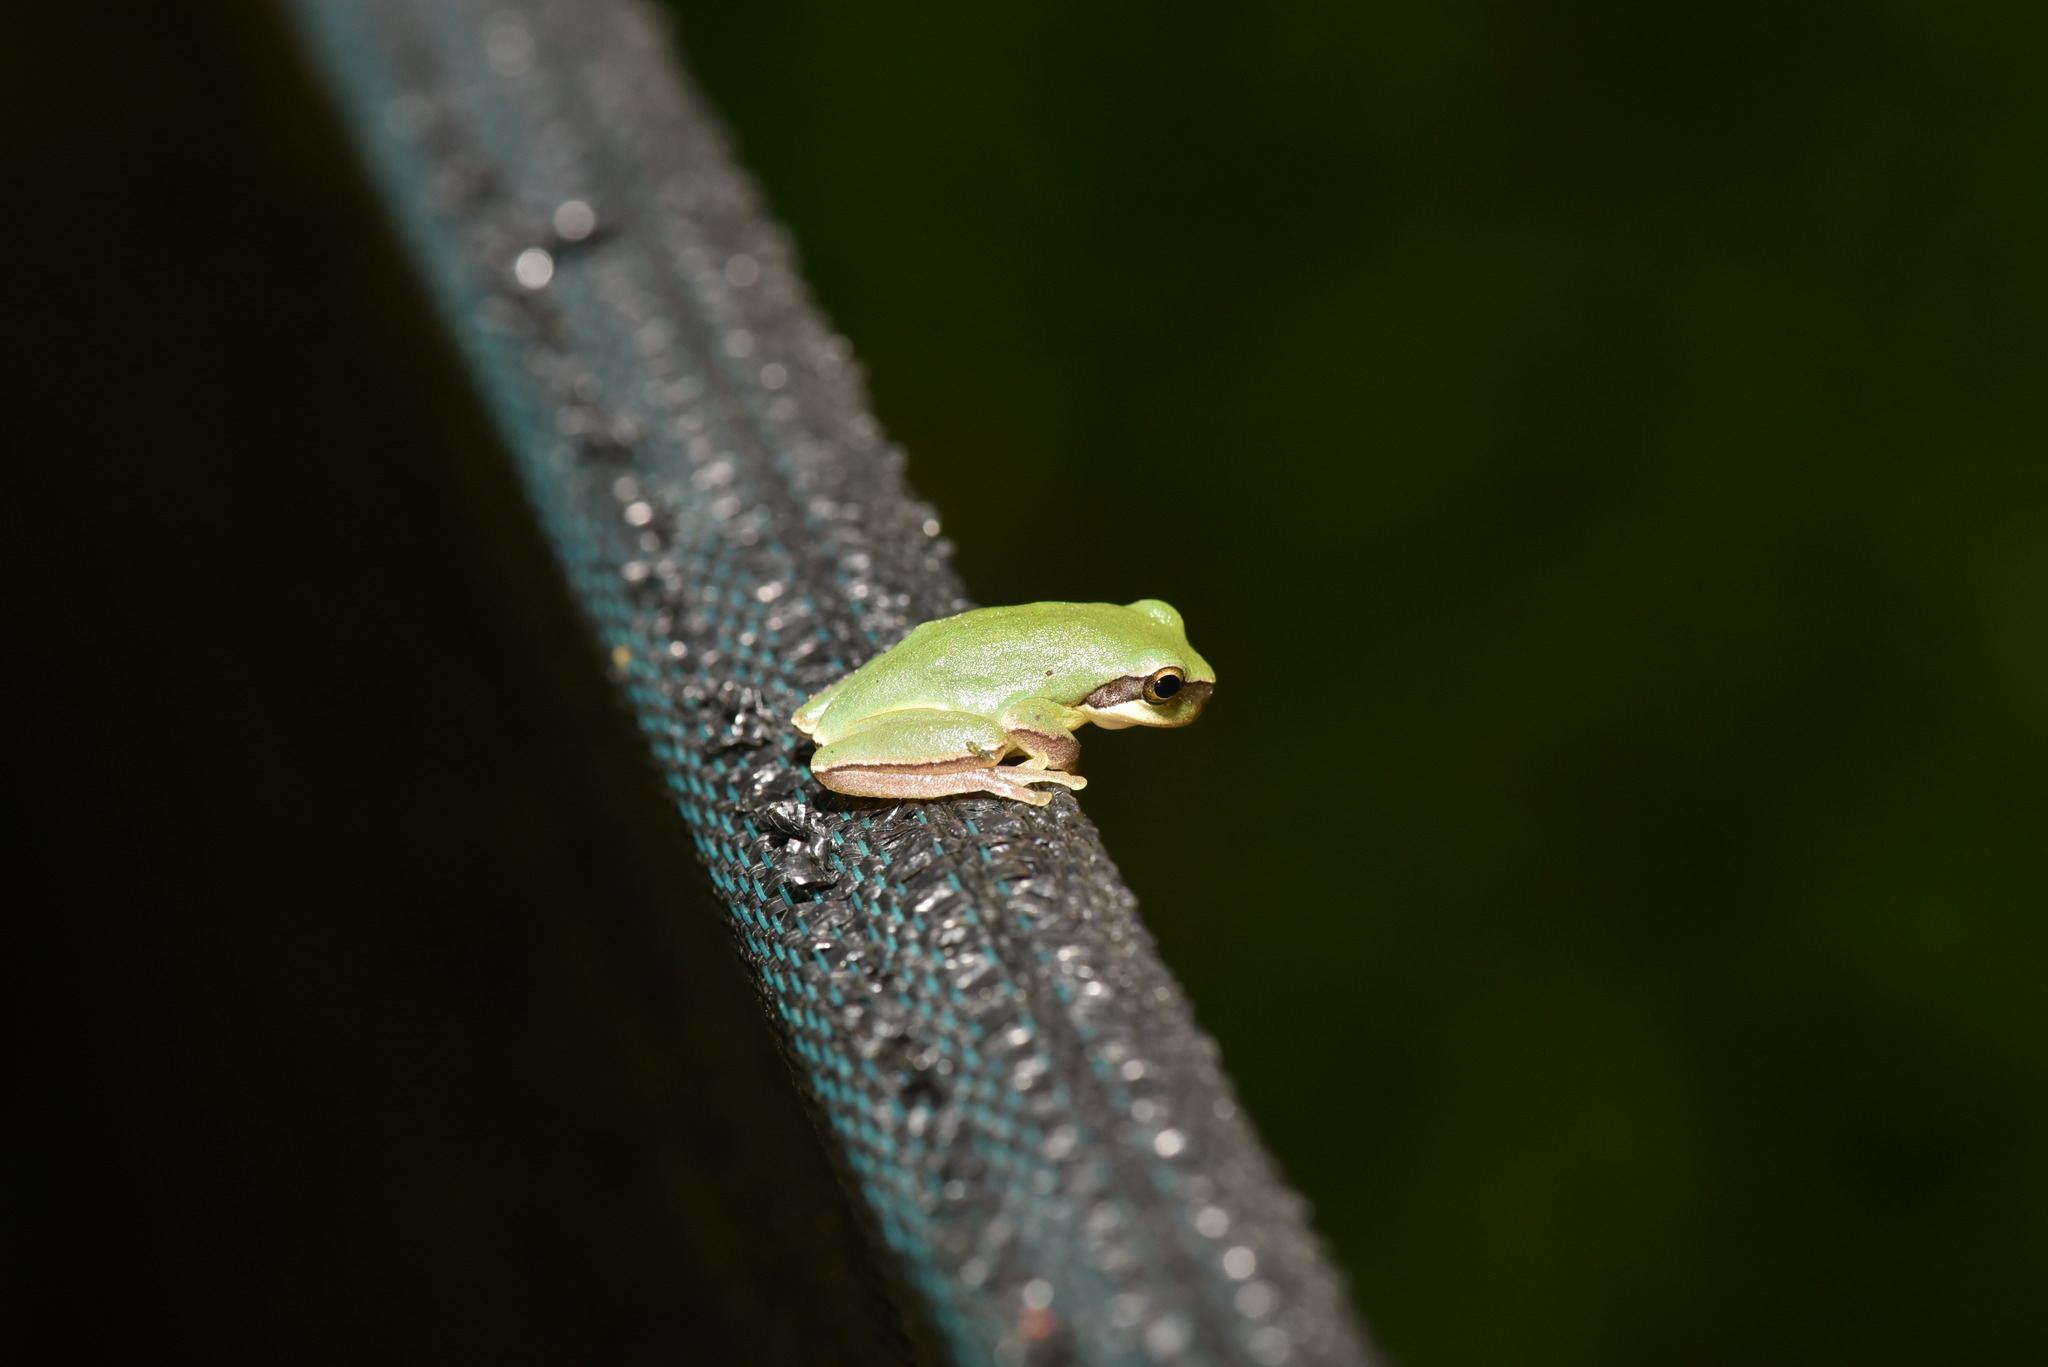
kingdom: Animalia
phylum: Chordata
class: Amphibia
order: Anura
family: Hylidae
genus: Hyla
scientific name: Hyla chinensis
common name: Common chinese treefrog
